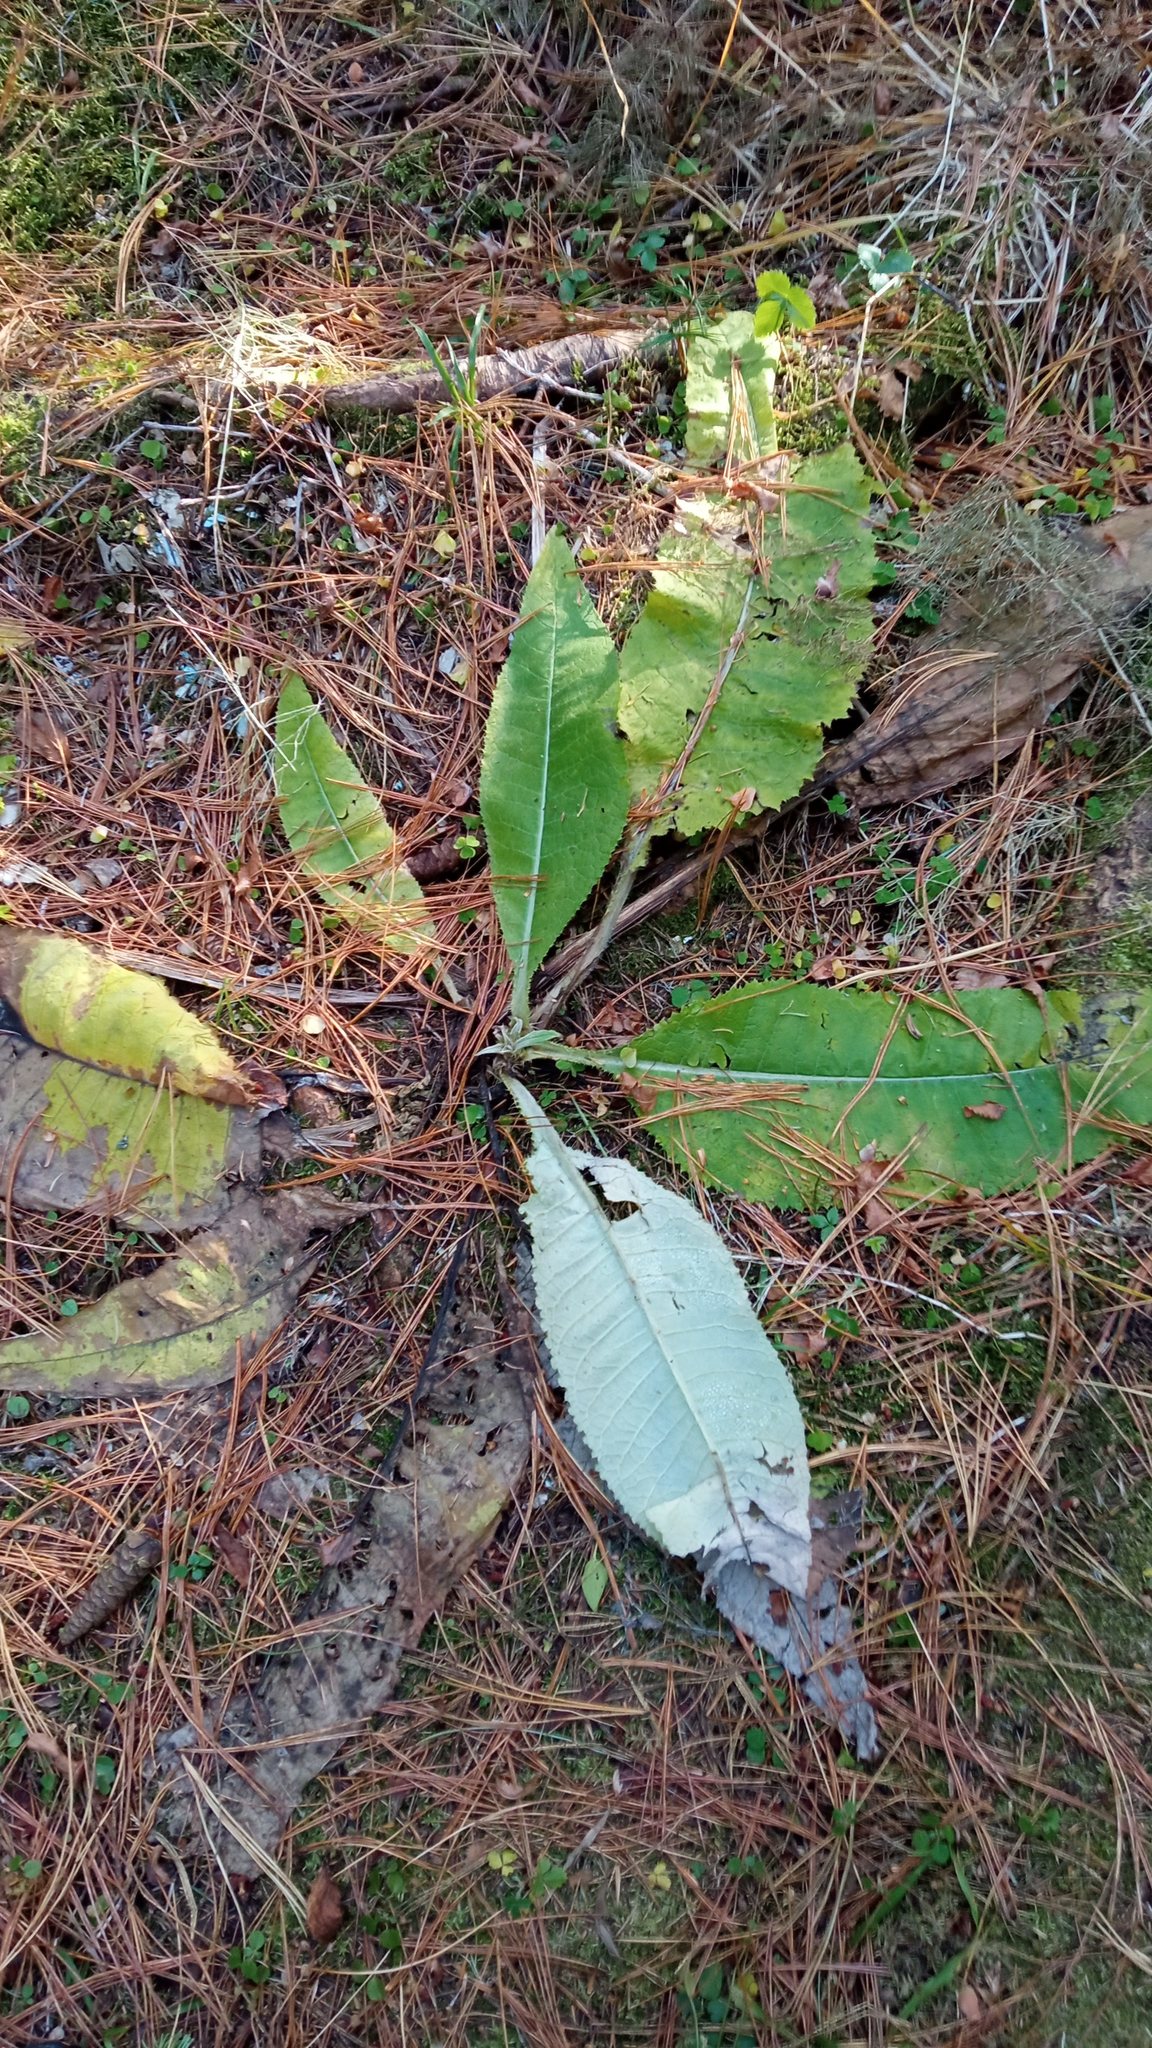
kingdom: Plantae
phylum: Tracheophyta
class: Magnoliopsida
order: Asterales
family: Asteraceae
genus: Cirsium
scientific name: Cirsium heterophyllum
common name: Melancholy thistle
